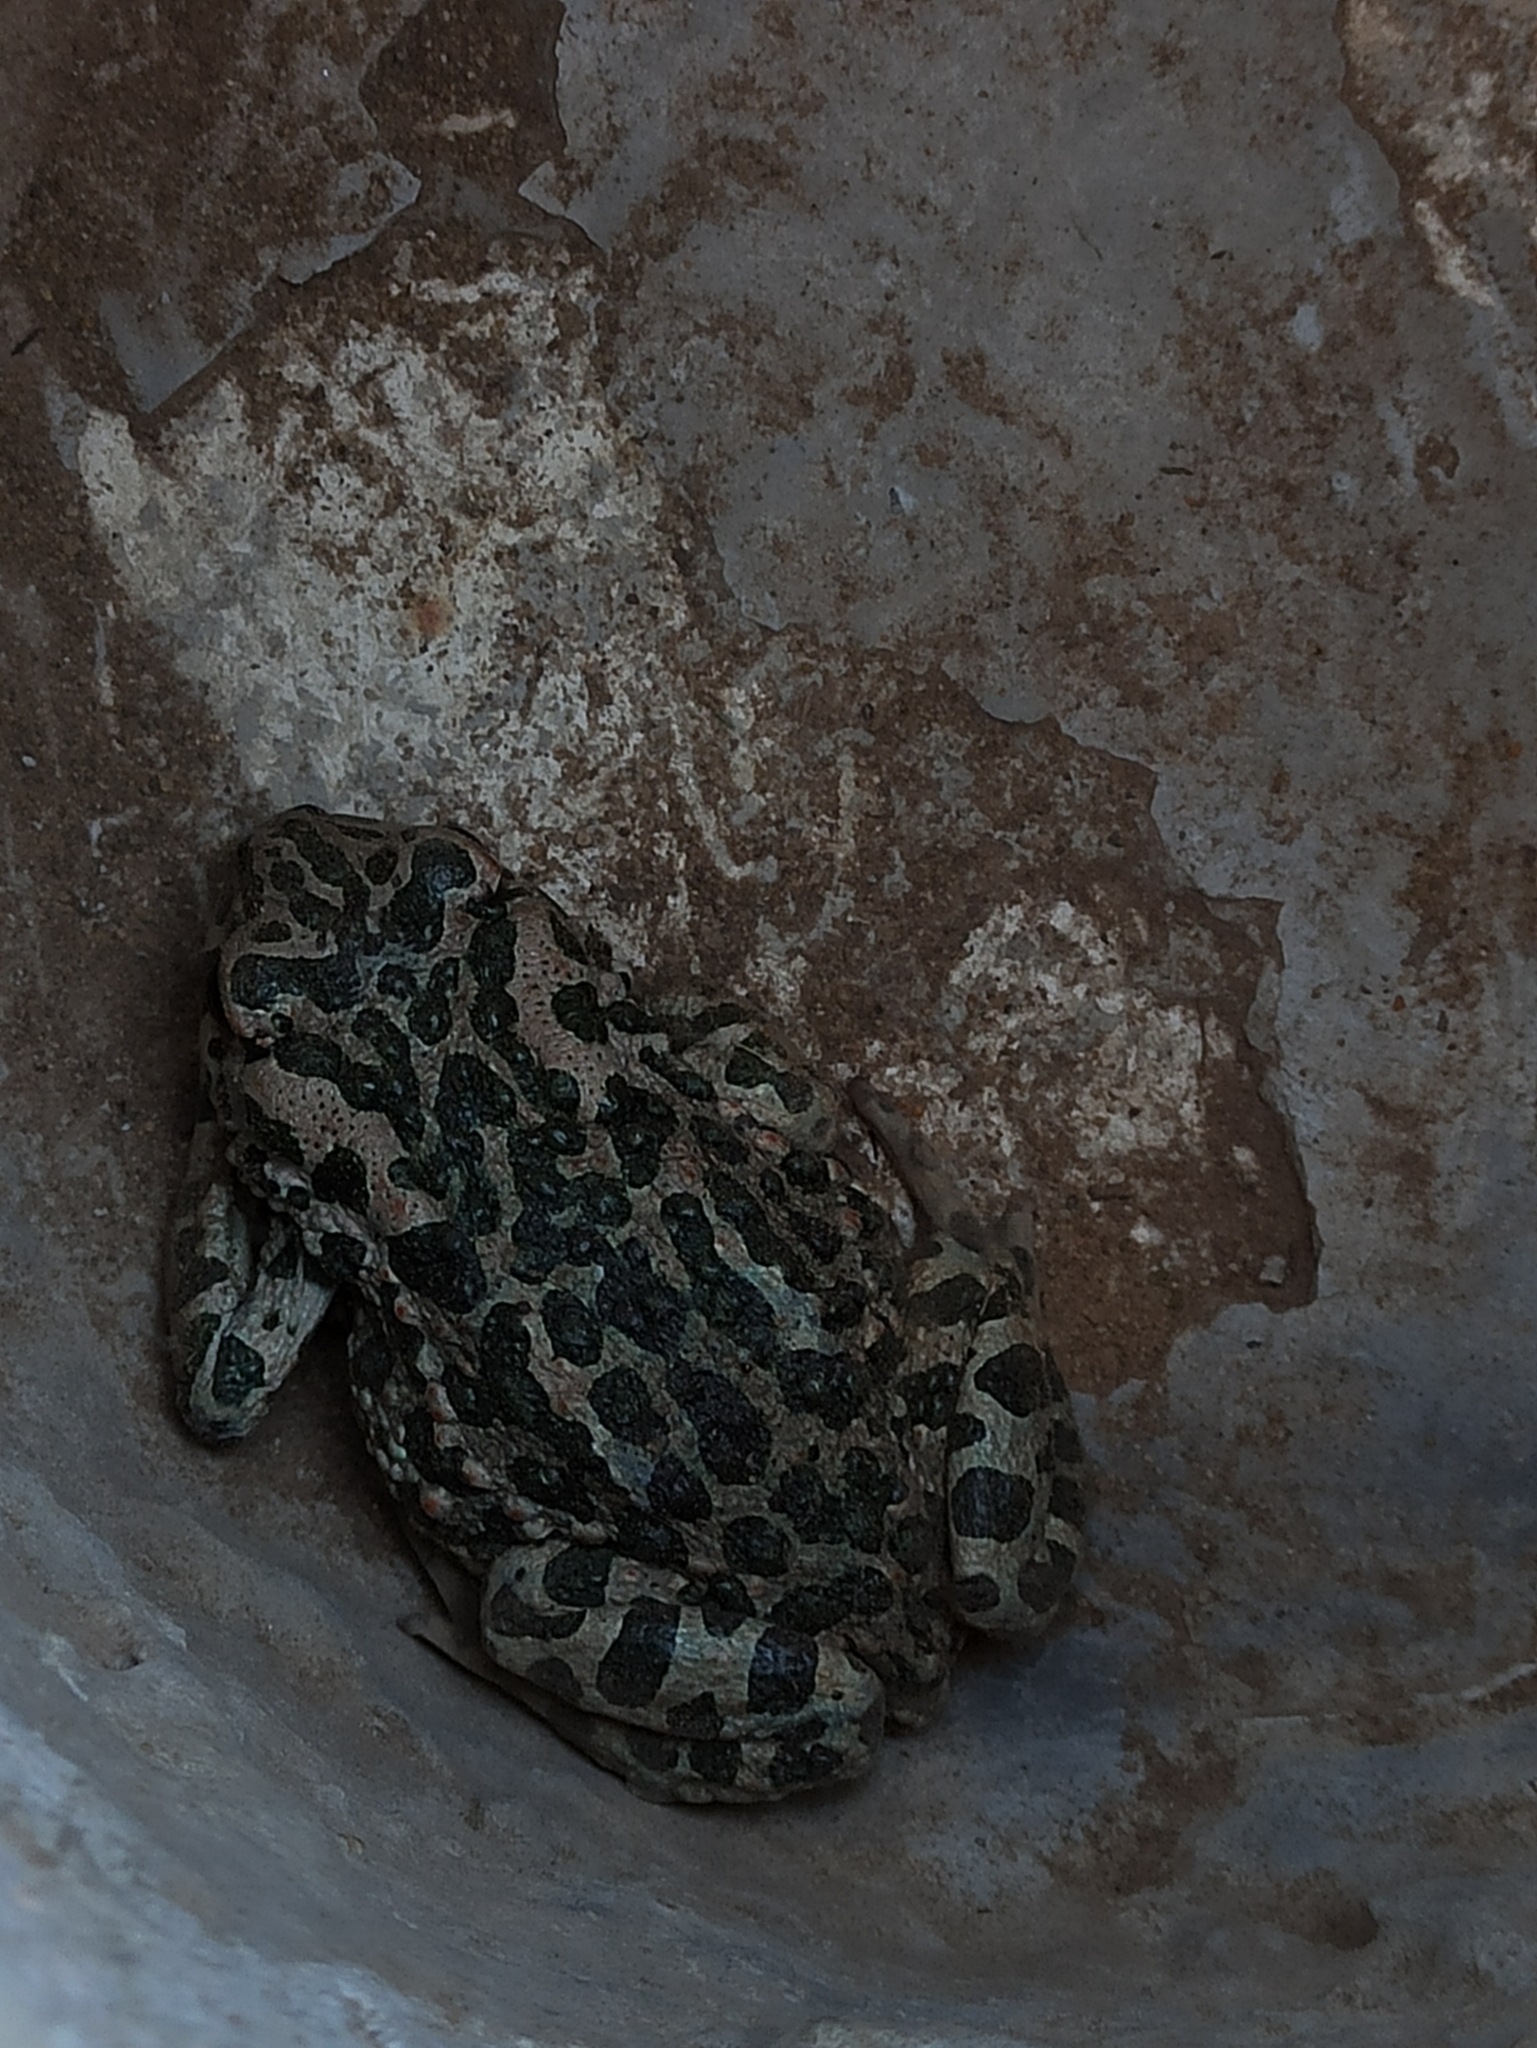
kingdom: Animalia
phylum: Chordata
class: Amphibia
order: Anura
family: Bufonidae
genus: Bufotes
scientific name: Bufotes viridis
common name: European green toad
